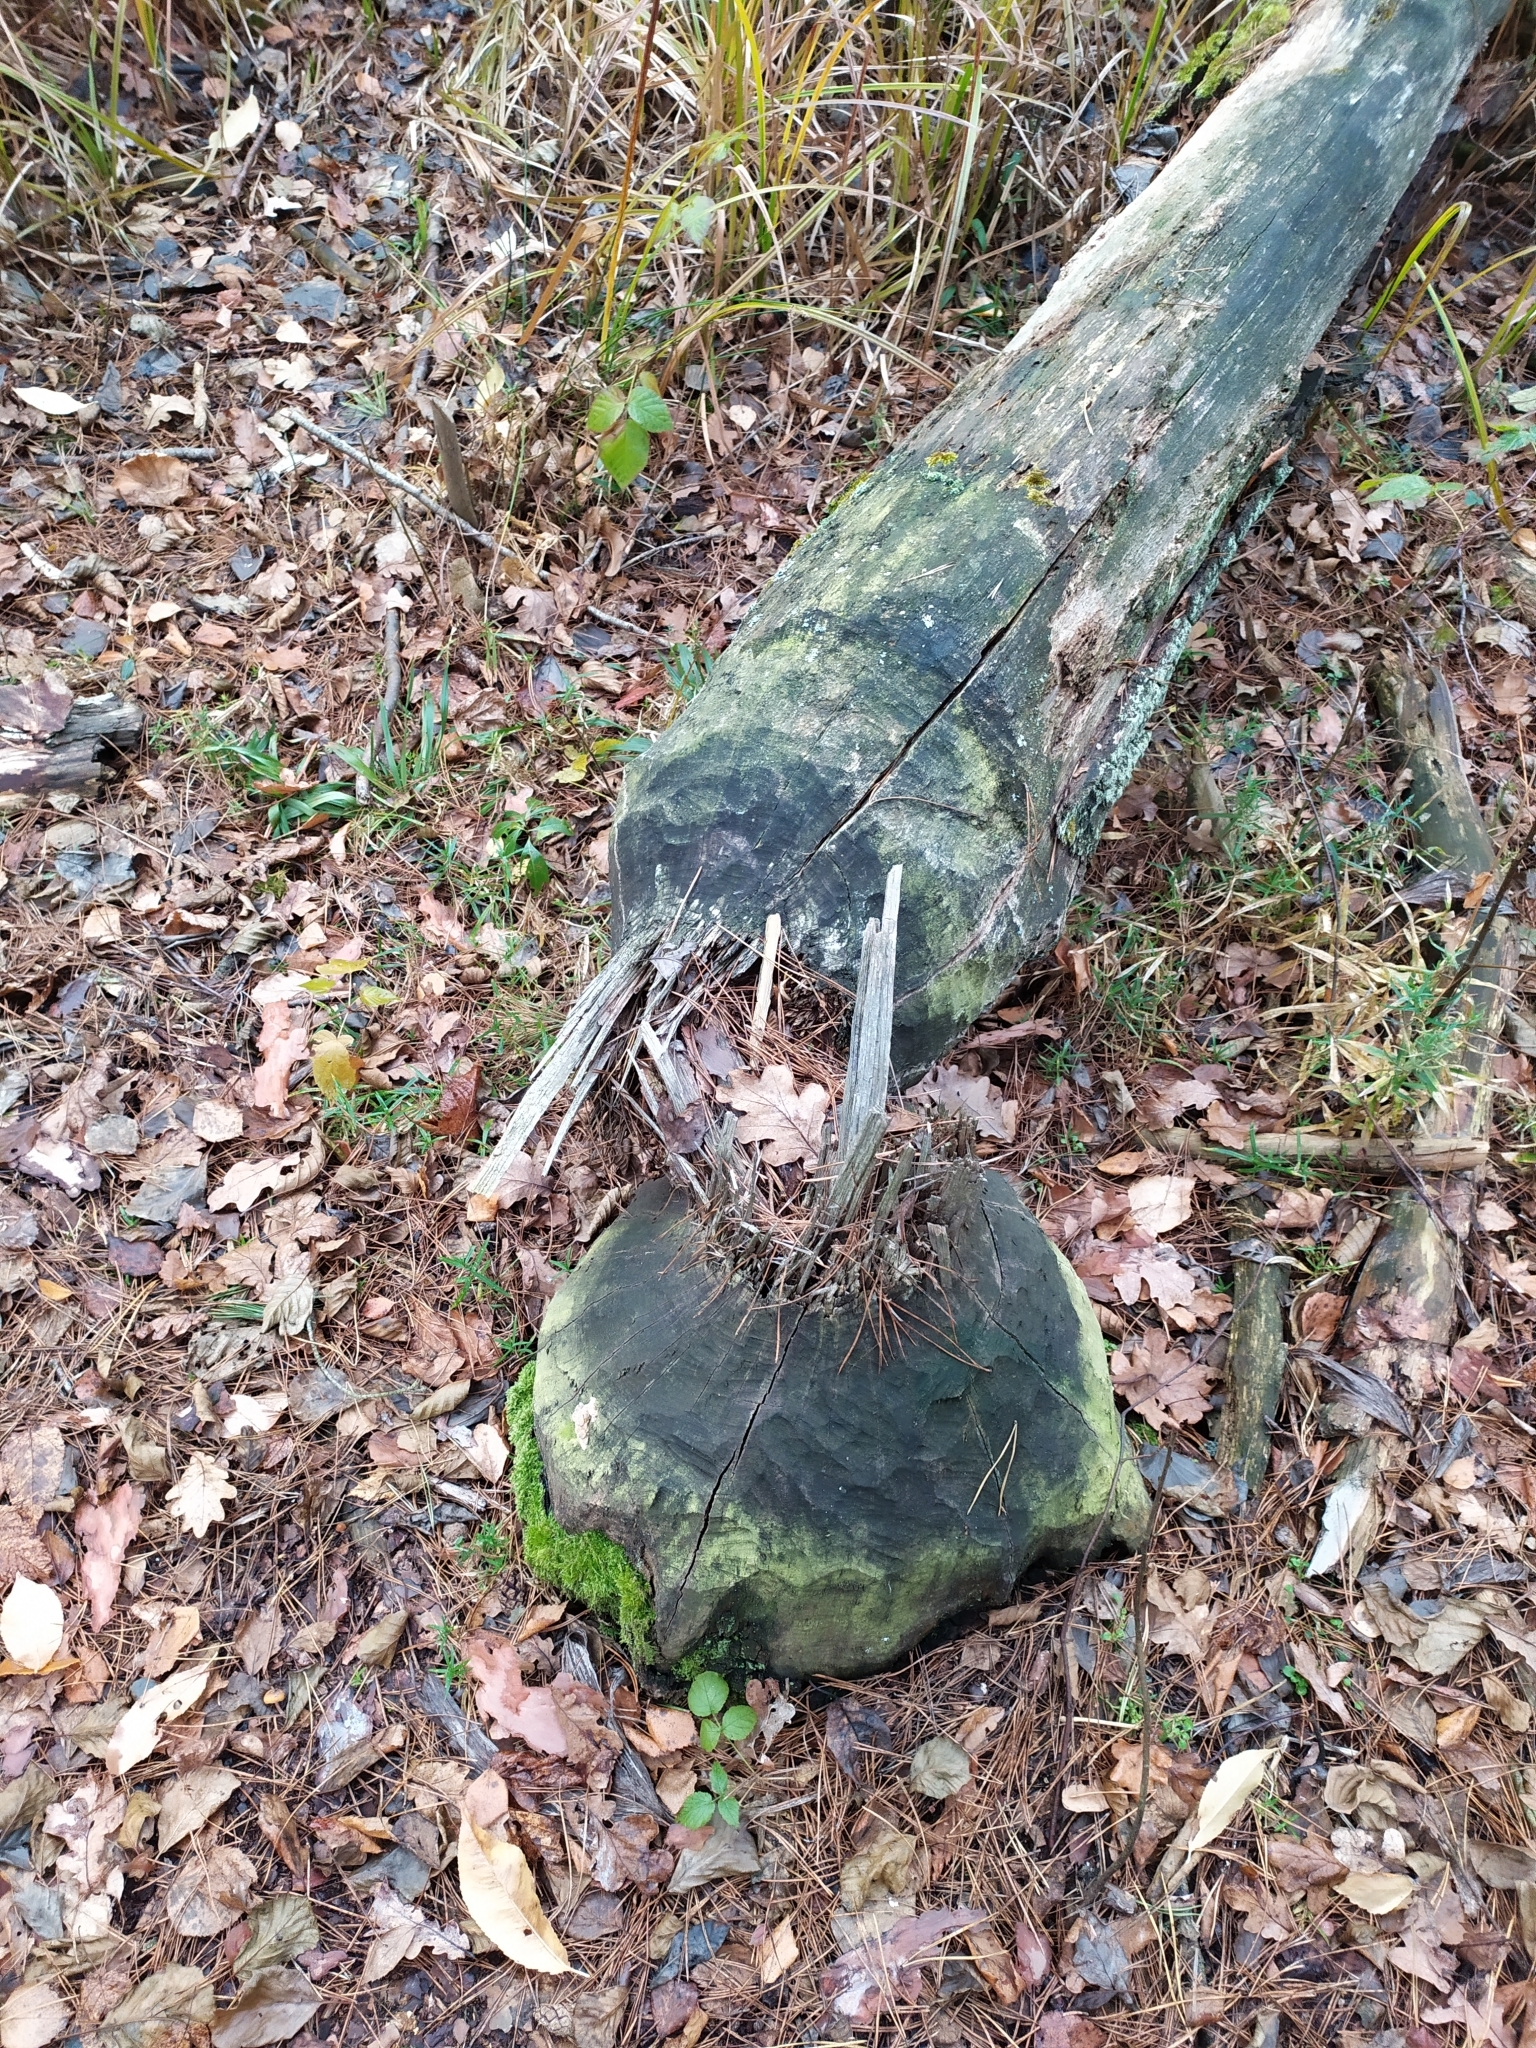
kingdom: Animalia
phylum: Chordata
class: Mammalia
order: Rodentia
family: Castoridae
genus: Castor
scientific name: Castor fiber
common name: Eurasian beaver
